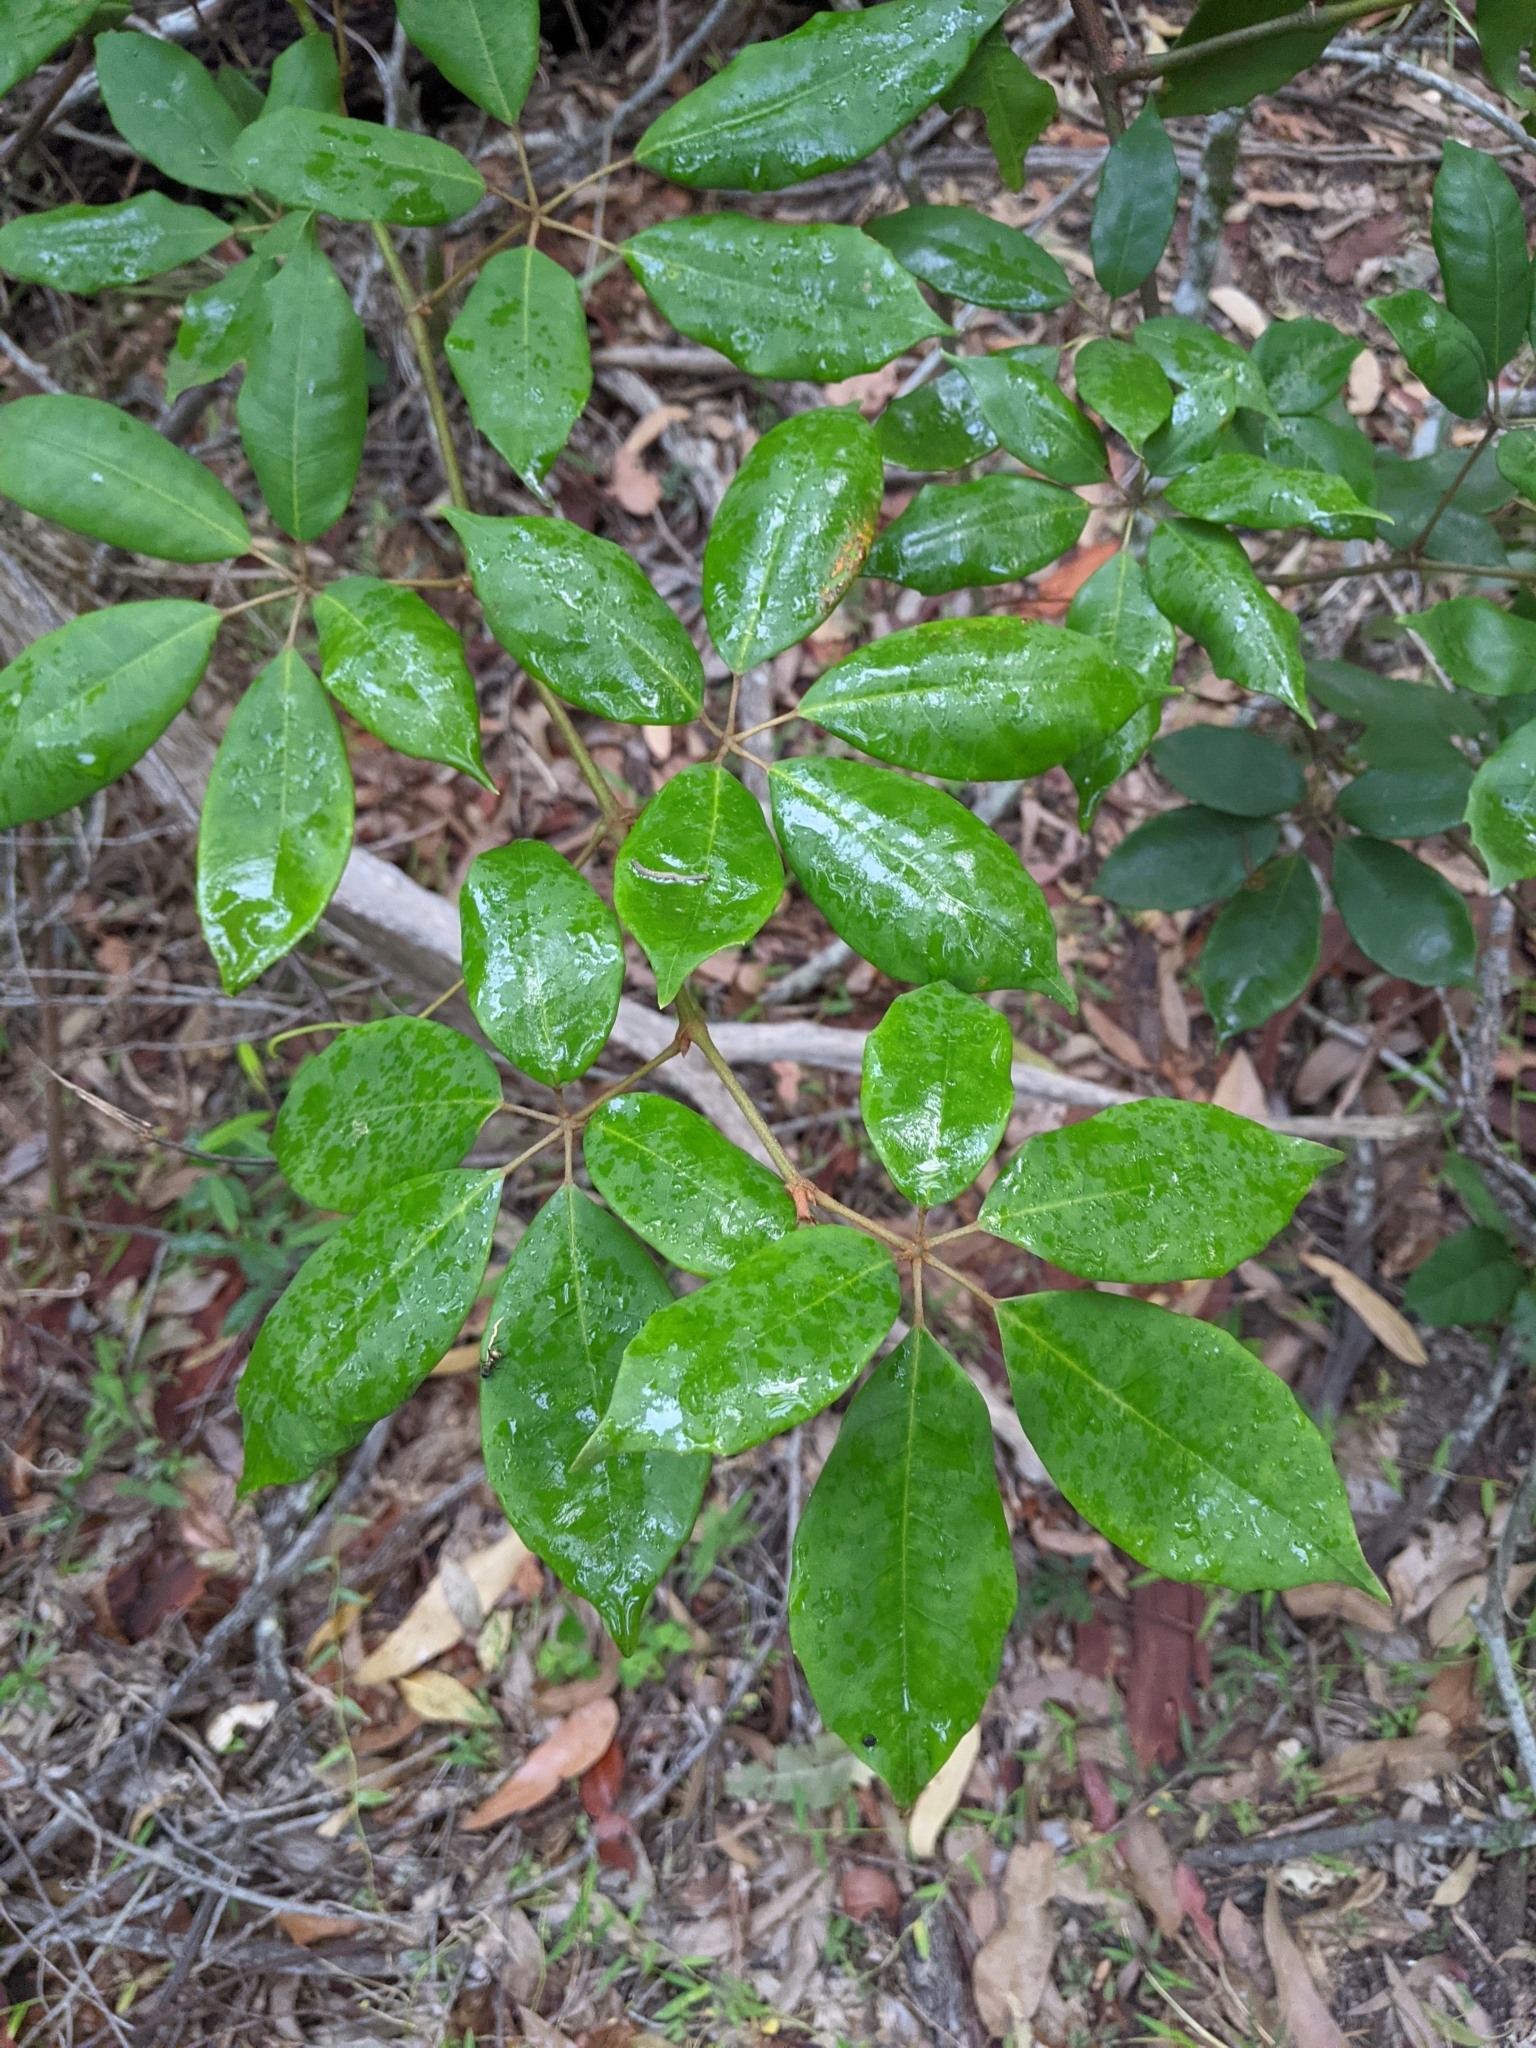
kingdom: Plantae
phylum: Tracheophyta
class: Magnoliopsida
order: Vitales
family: Vitaceae
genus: Nothocissus
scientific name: Nothocissus hypoglauca
